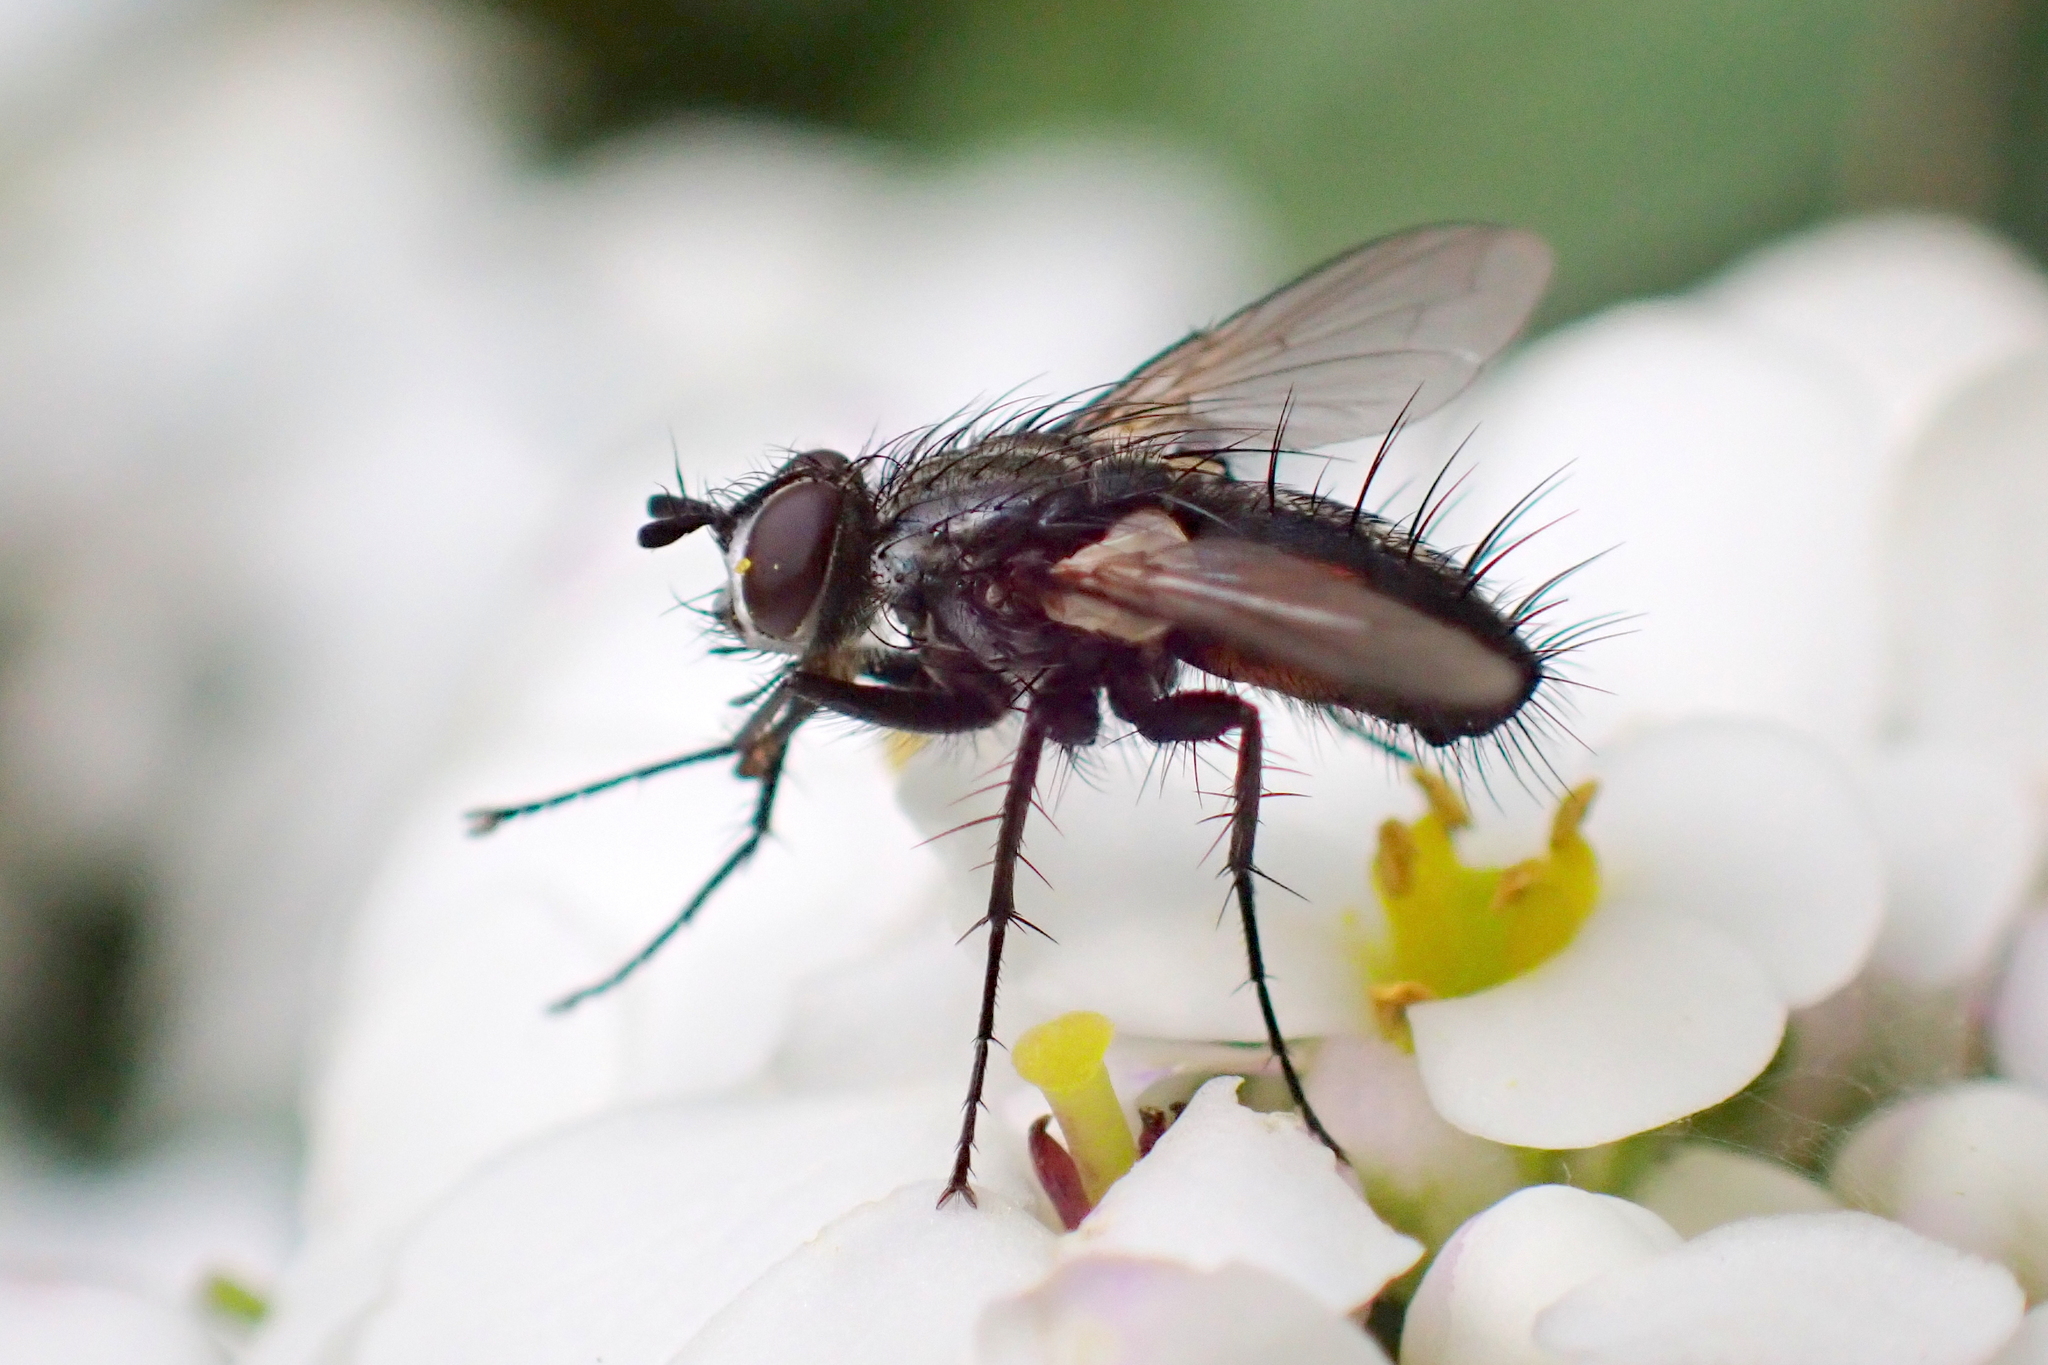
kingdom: Animalia
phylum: Arthropoda
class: Insecta
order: Diptera
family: Tachinidae
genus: Eriothrix
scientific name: Eriothrix rufomaculatus
